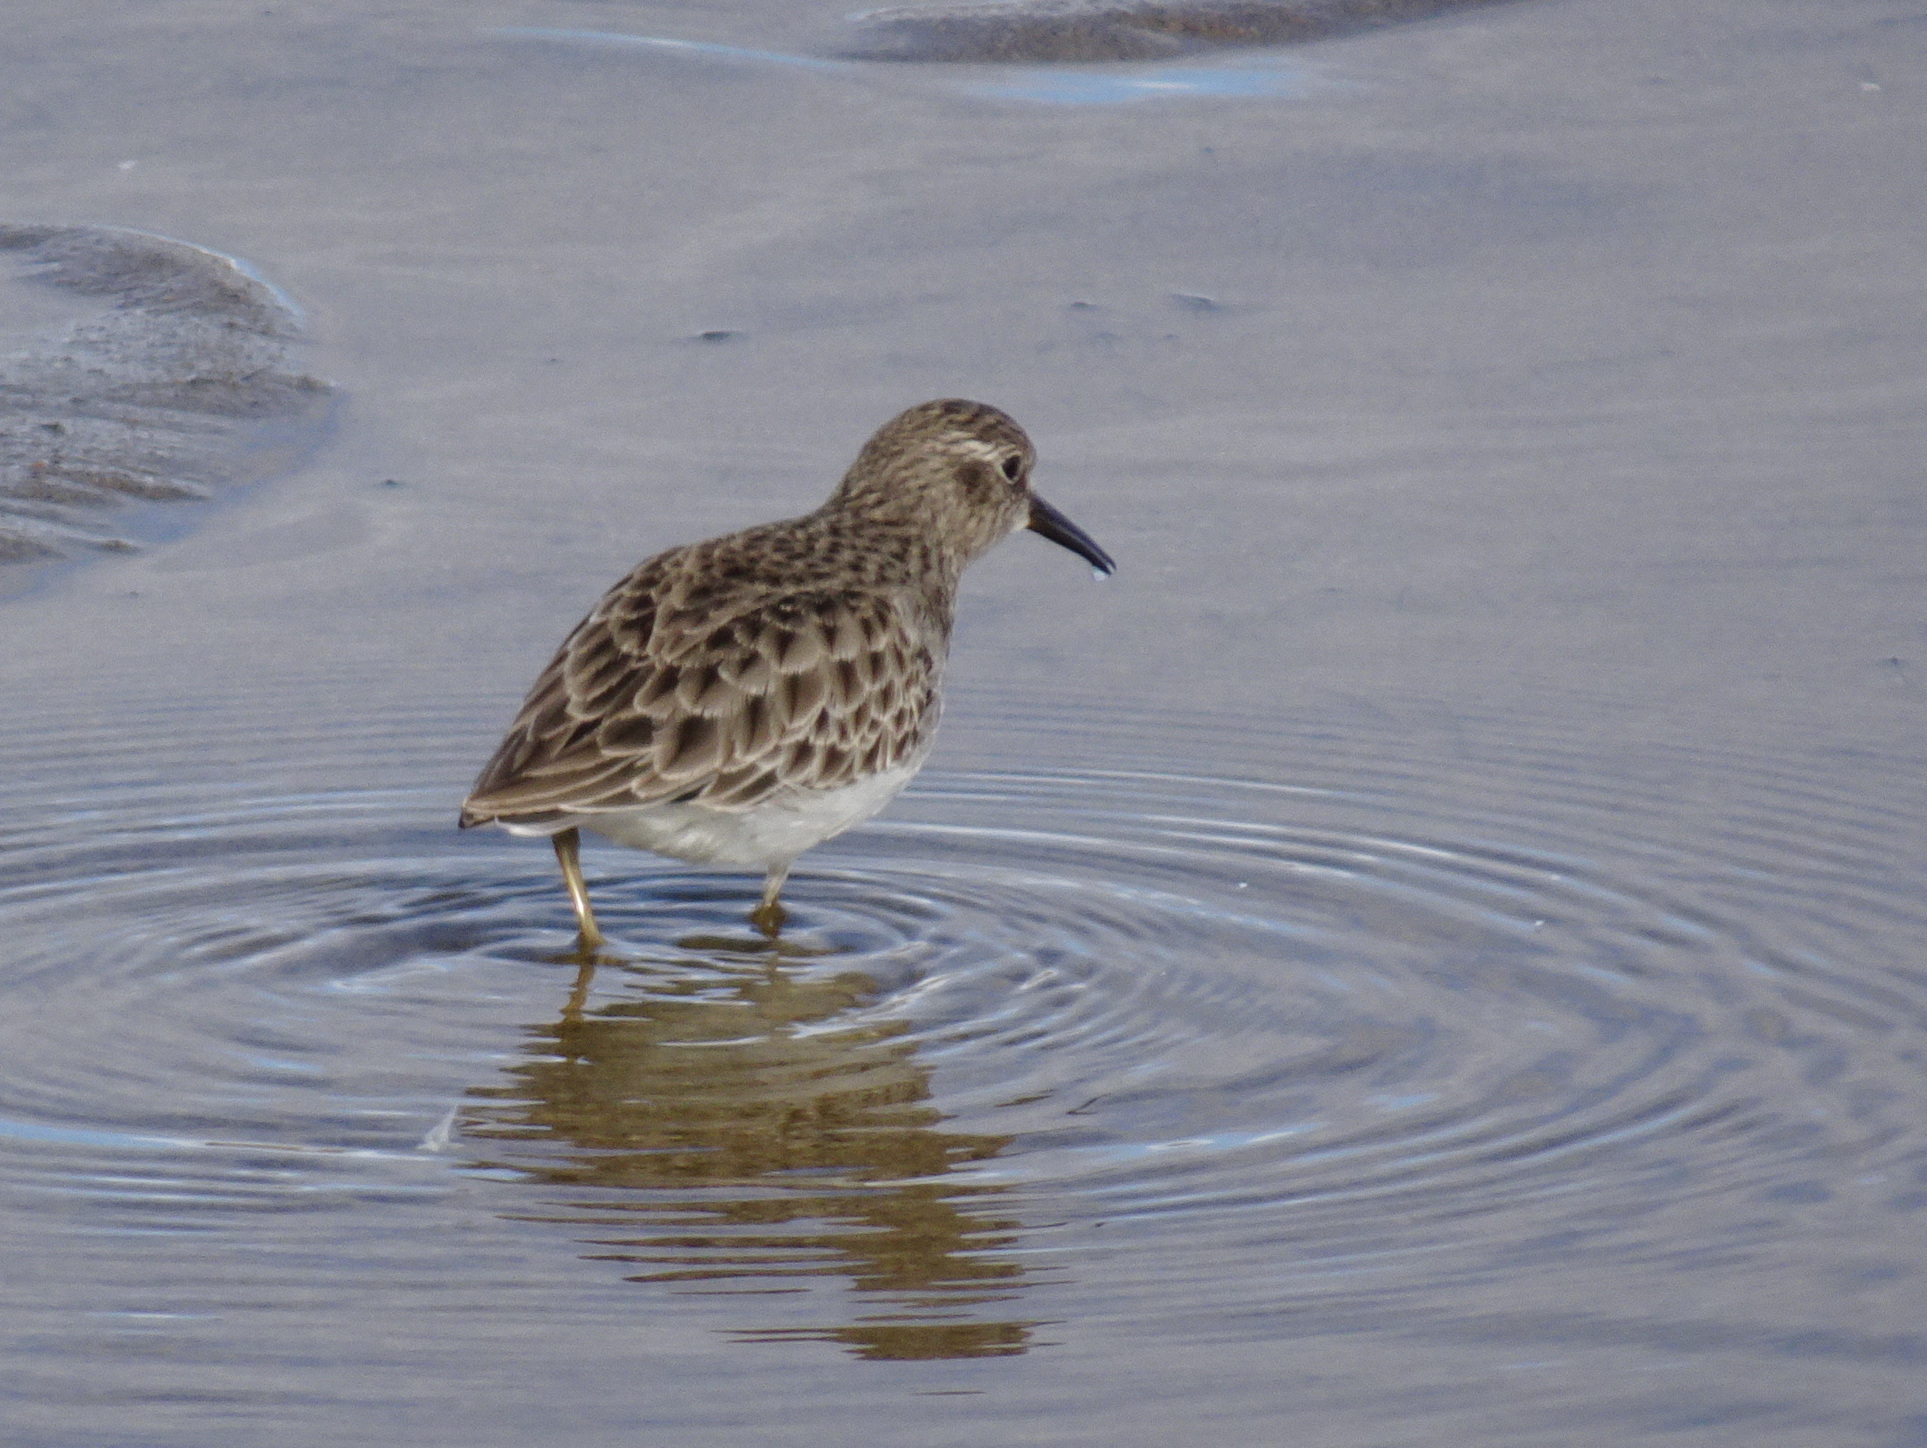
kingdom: Animalia
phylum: Chordata
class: Aves
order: Charadriiformes
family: Scolopacidae
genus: Calidris
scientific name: Calidris minutilla
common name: Least sandpiper
